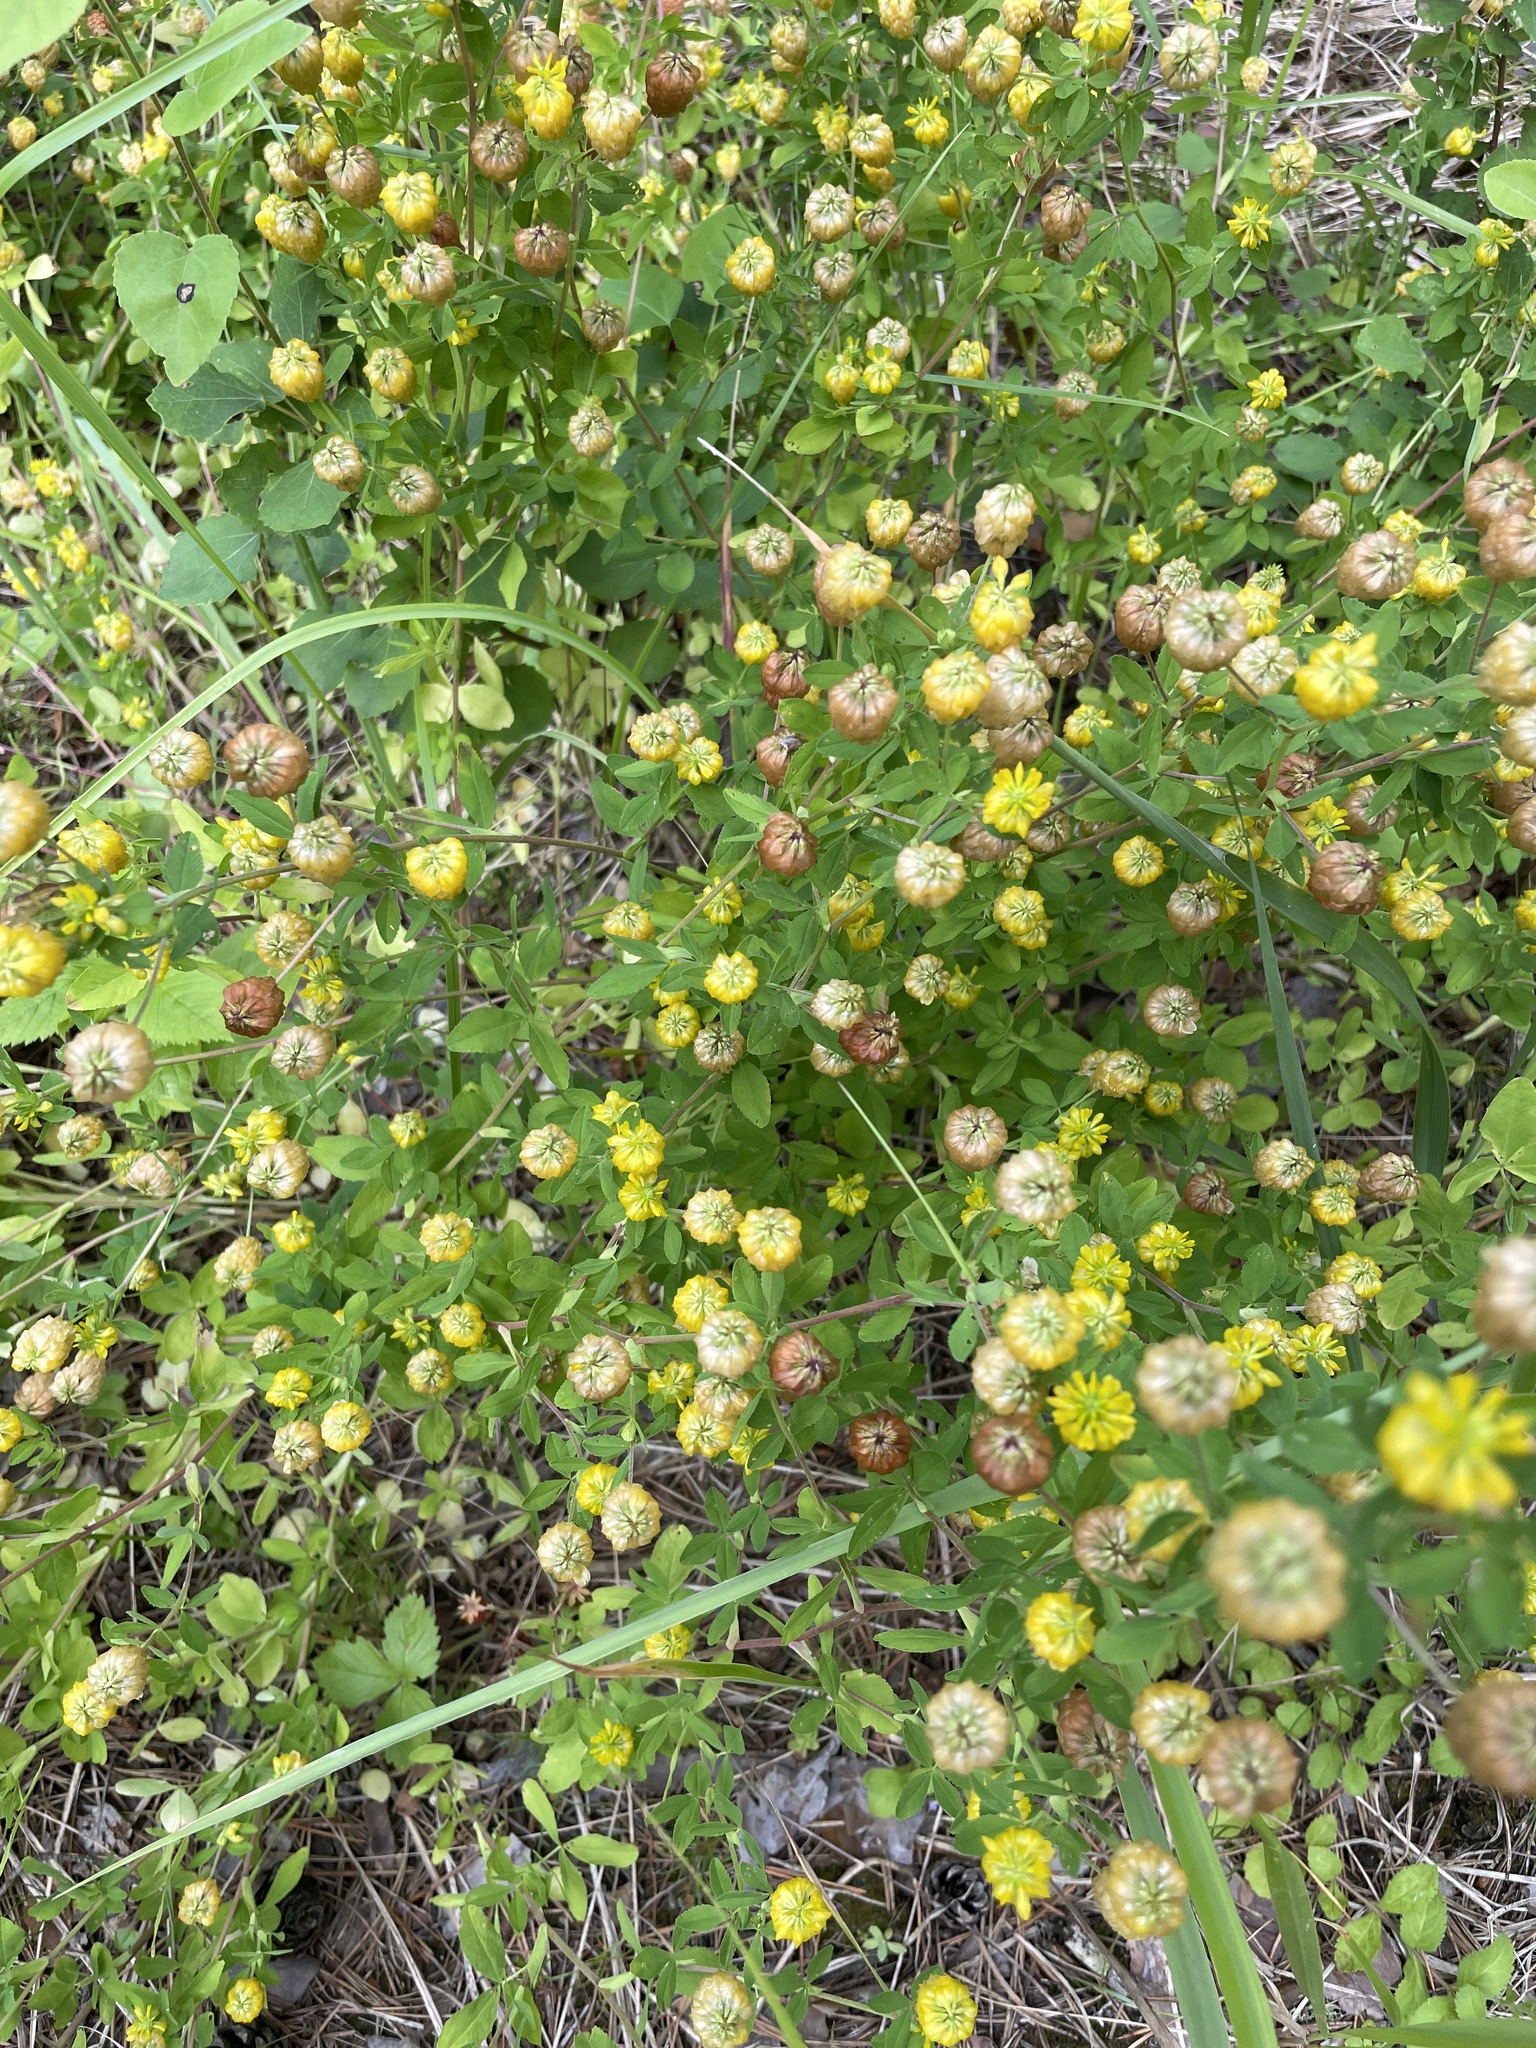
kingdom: Plantae
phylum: Tracheophyta
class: Magnoliopsida
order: Fabales
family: Fabaceae
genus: Trifolium
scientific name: Trifolium aureum
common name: Golden clover
